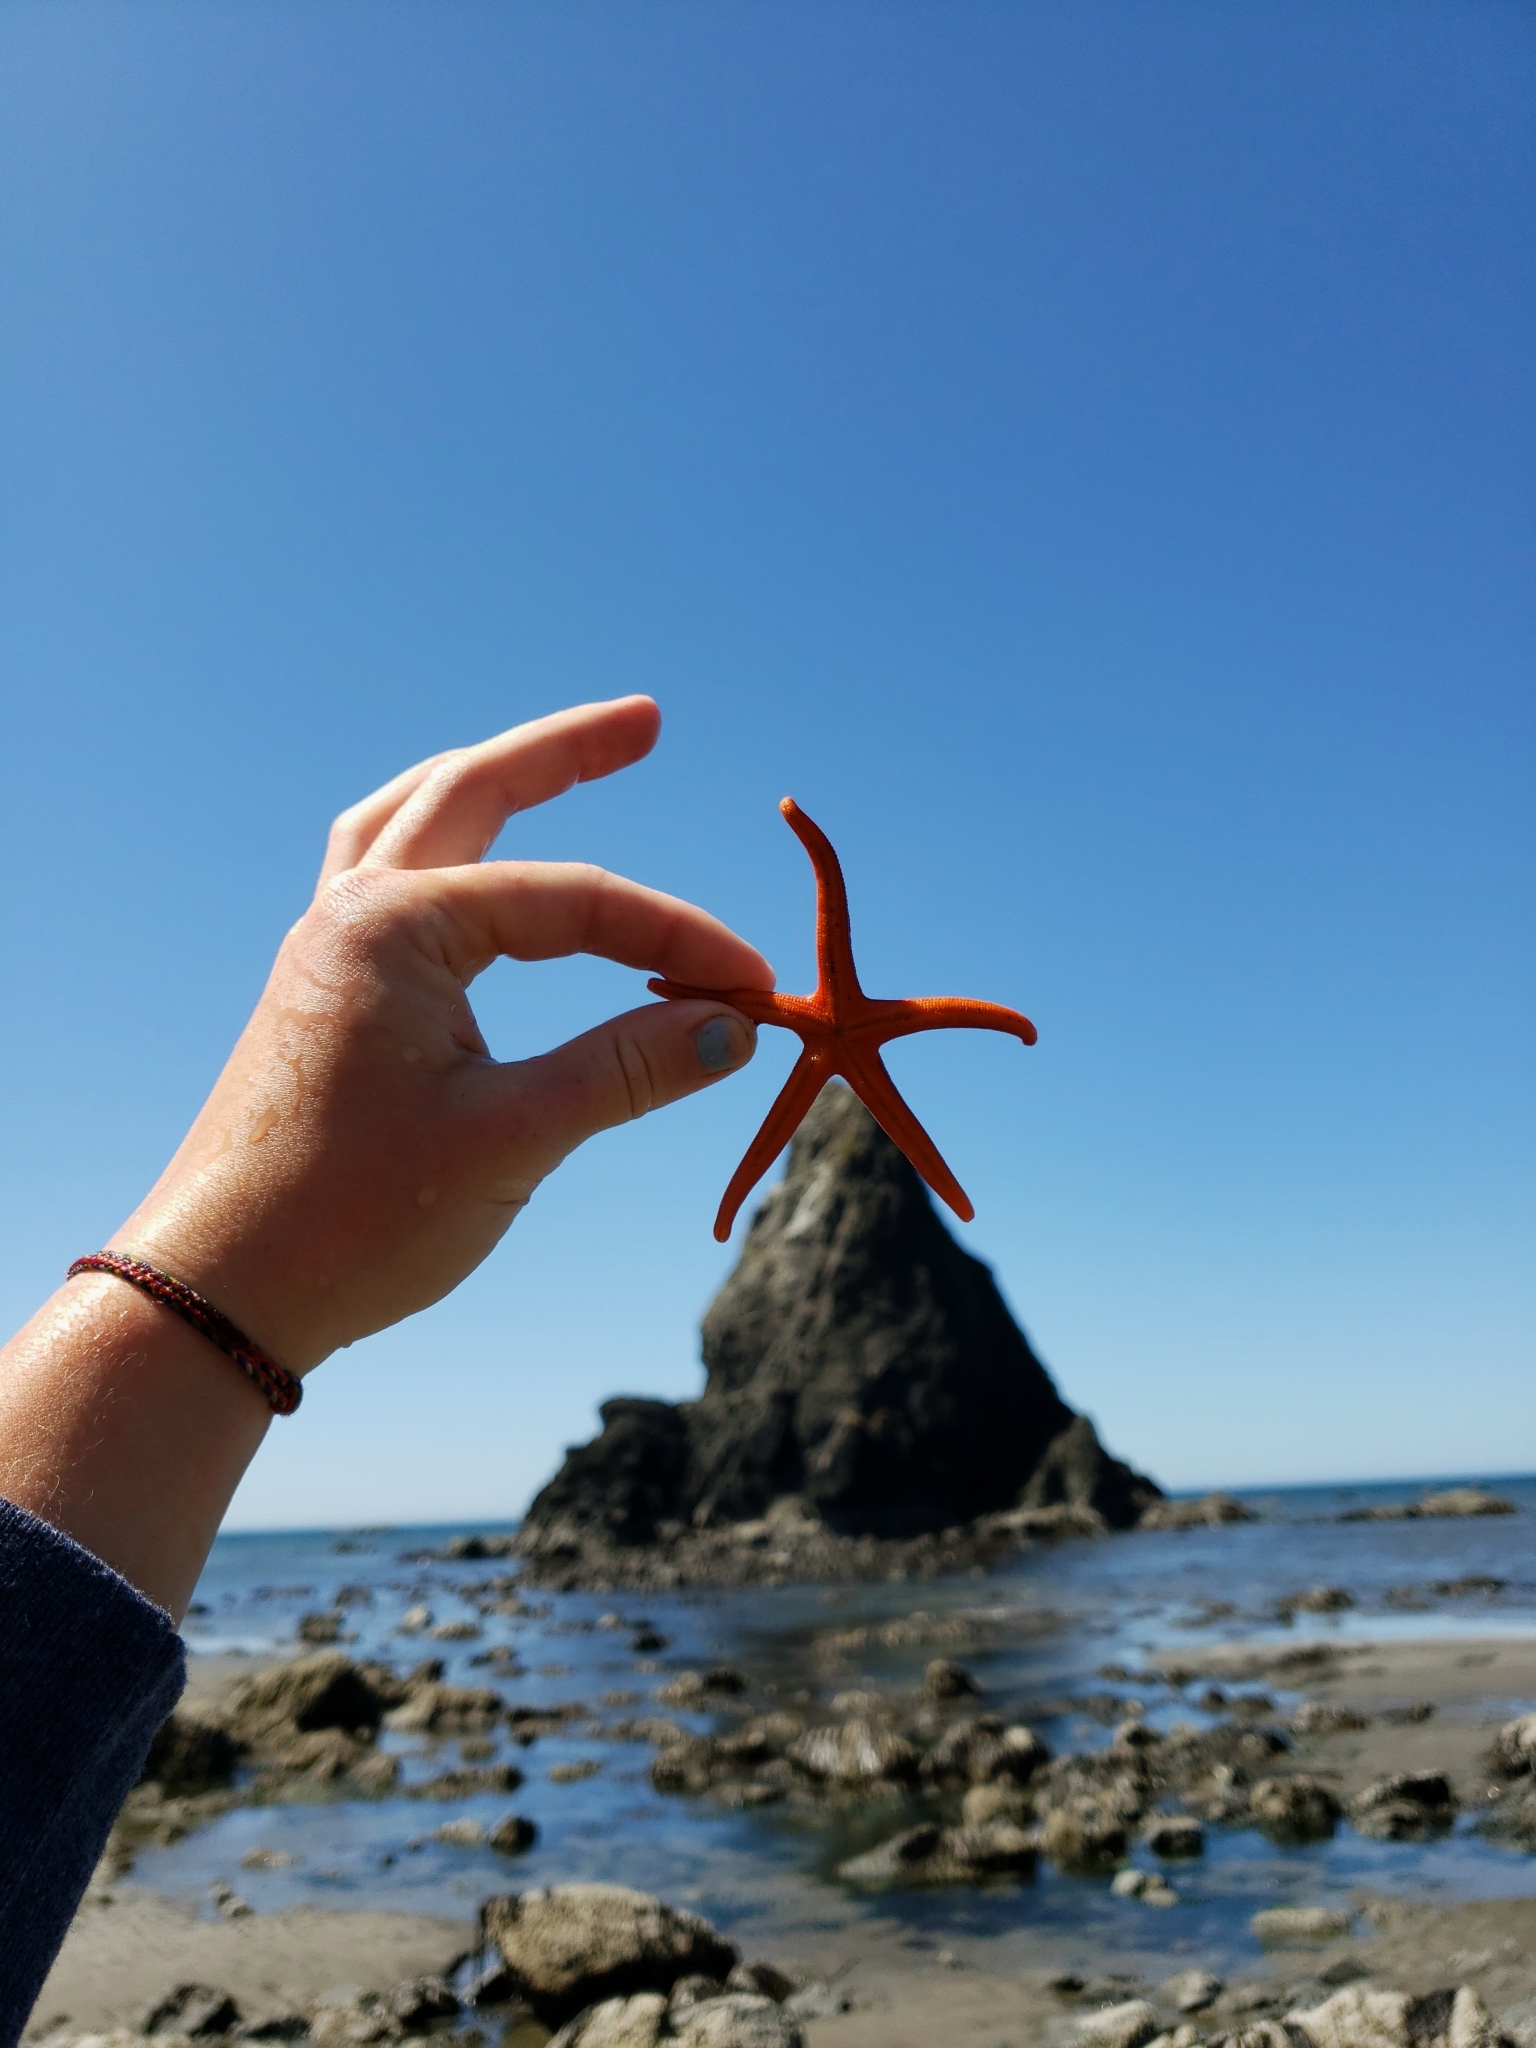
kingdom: Animalia
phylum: Echinodermata
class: Asteroidea
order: Spinulosida
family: Echinasteridae
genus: Henricia
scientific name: Henricia leviuscula
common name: Pacific blood star
